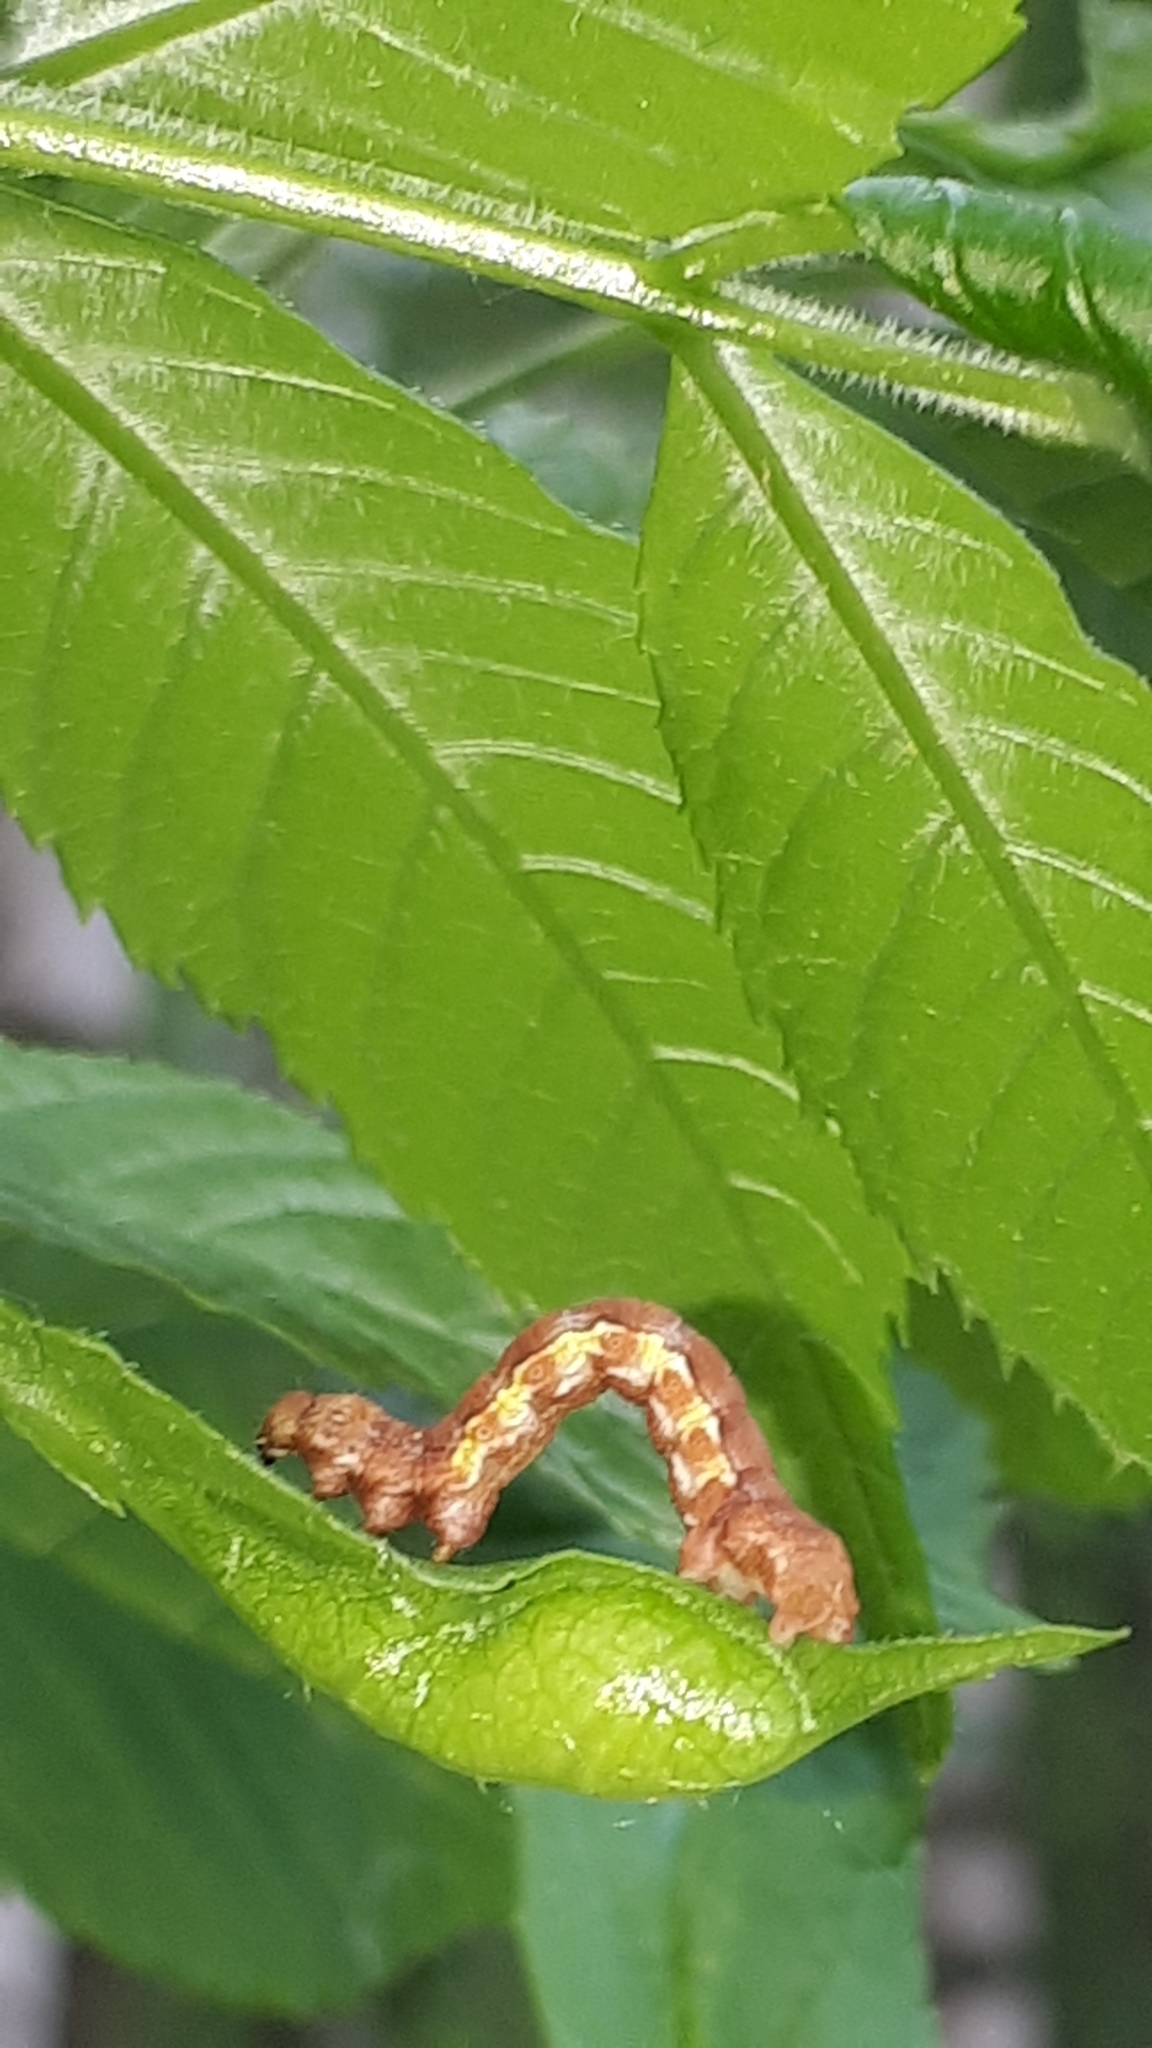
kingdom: Animalia
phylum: Arthropoda
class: Insecta
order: Lepidoptera
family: Geometridae
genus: Erannis
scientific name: Erannis defoliaria
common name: Mottled umber
